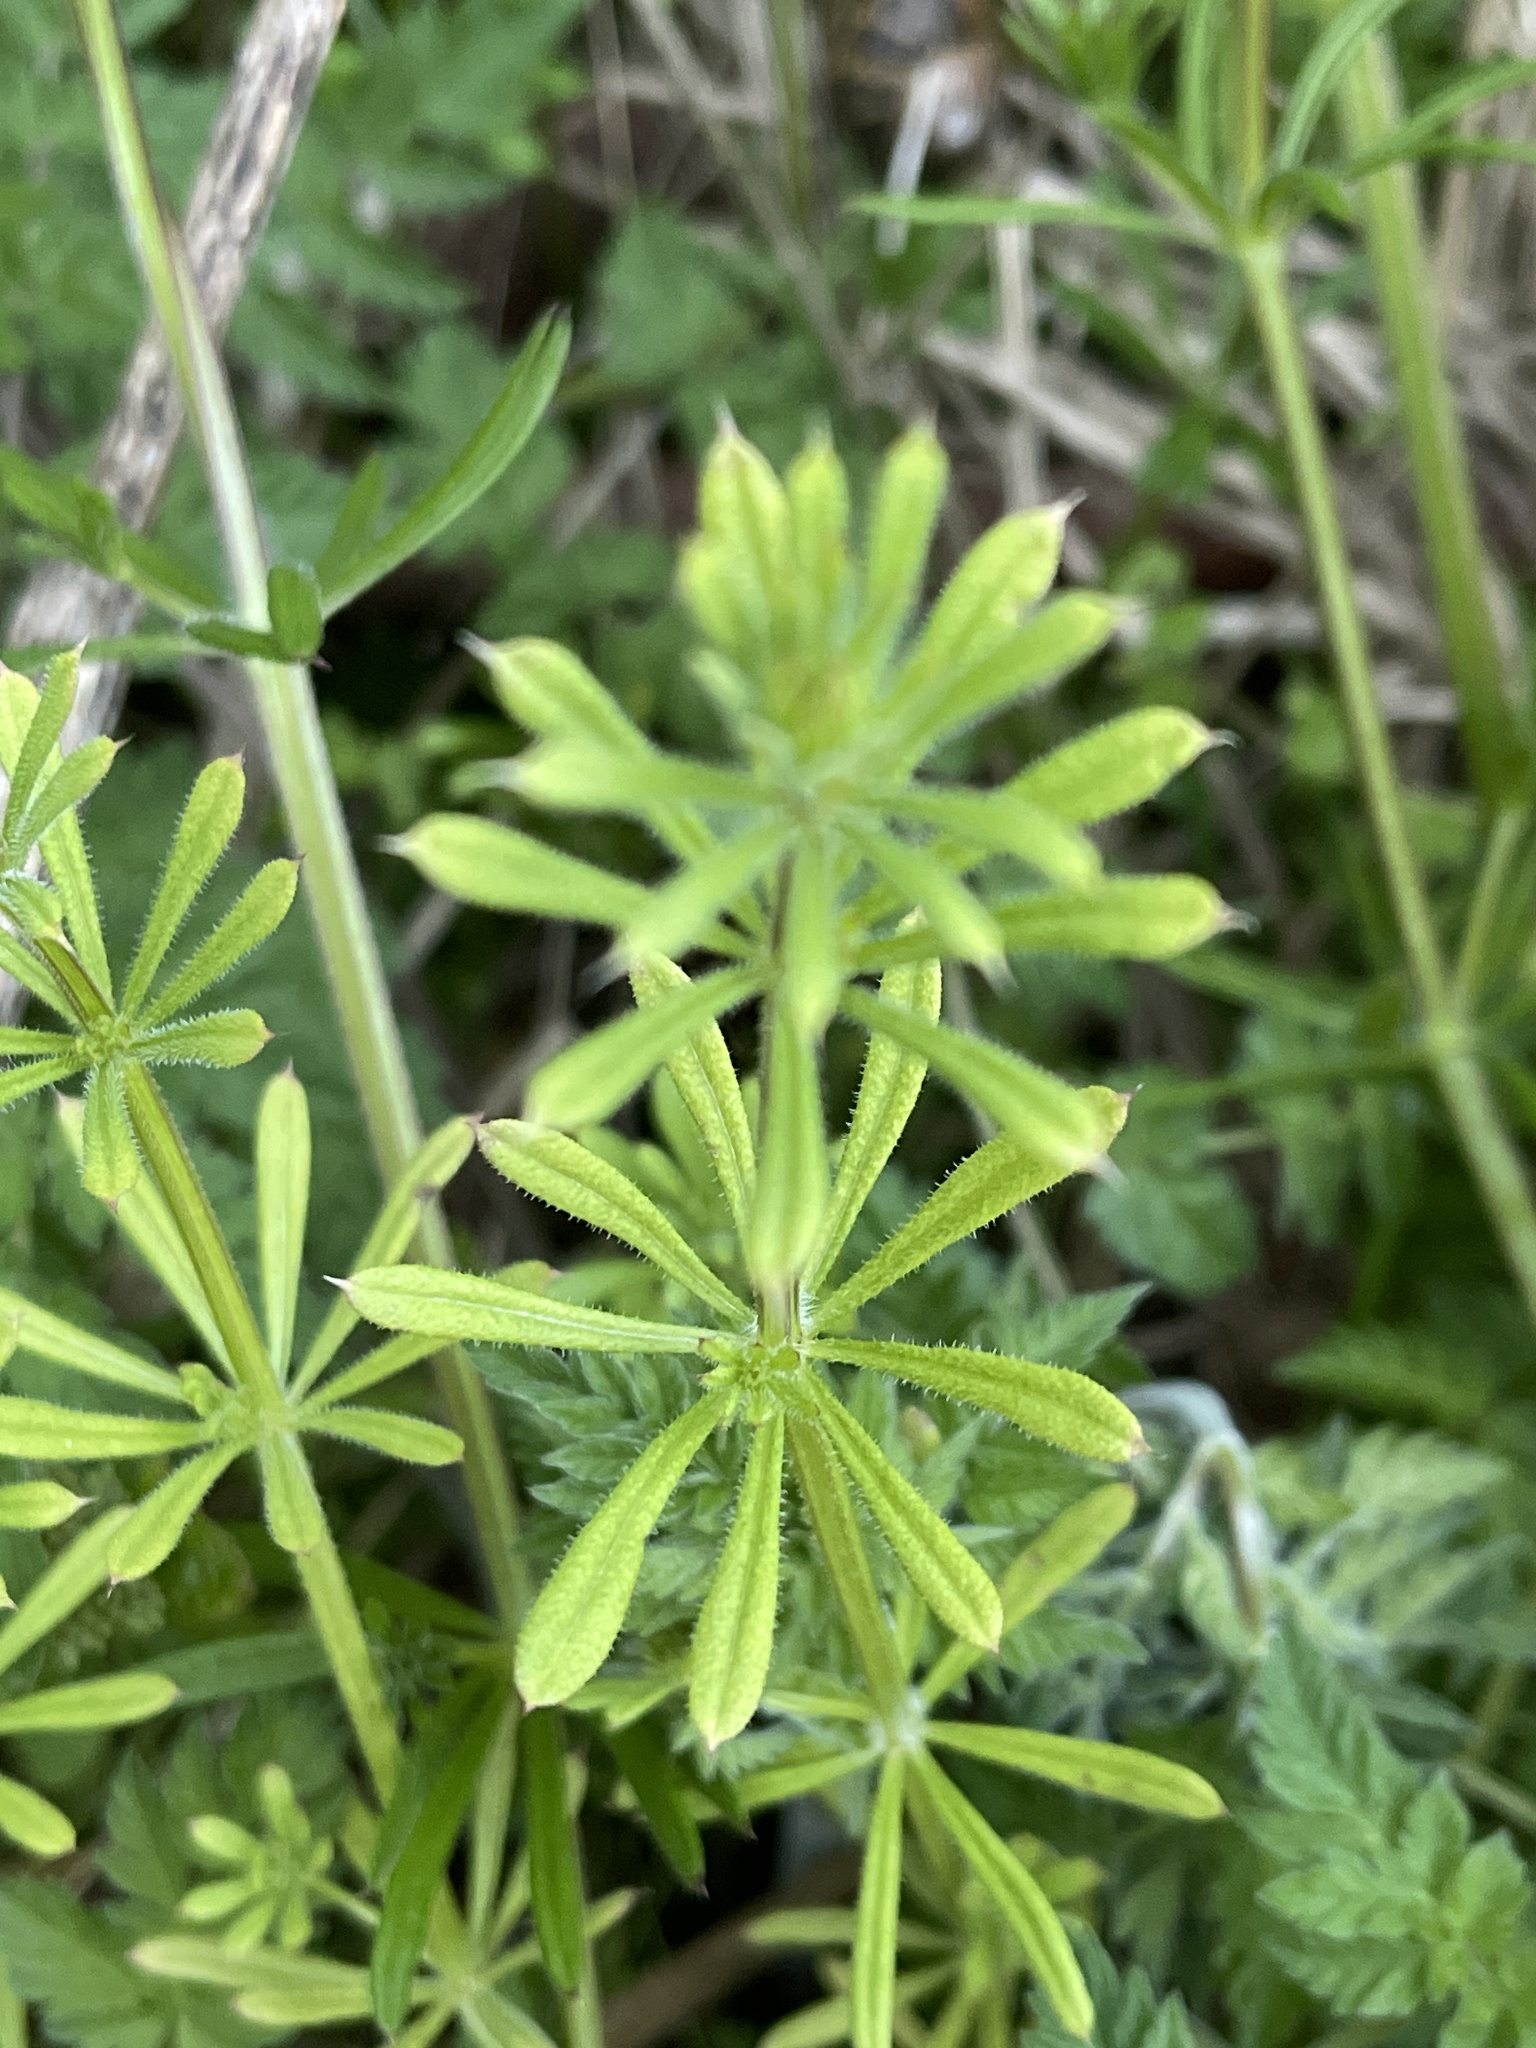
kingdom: Plantae
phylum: Tracheophyta
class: Magnoliopsida
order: Gentianales
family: Rubiaceae
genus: Galium
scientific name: Galium aparine
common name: Cleavers
